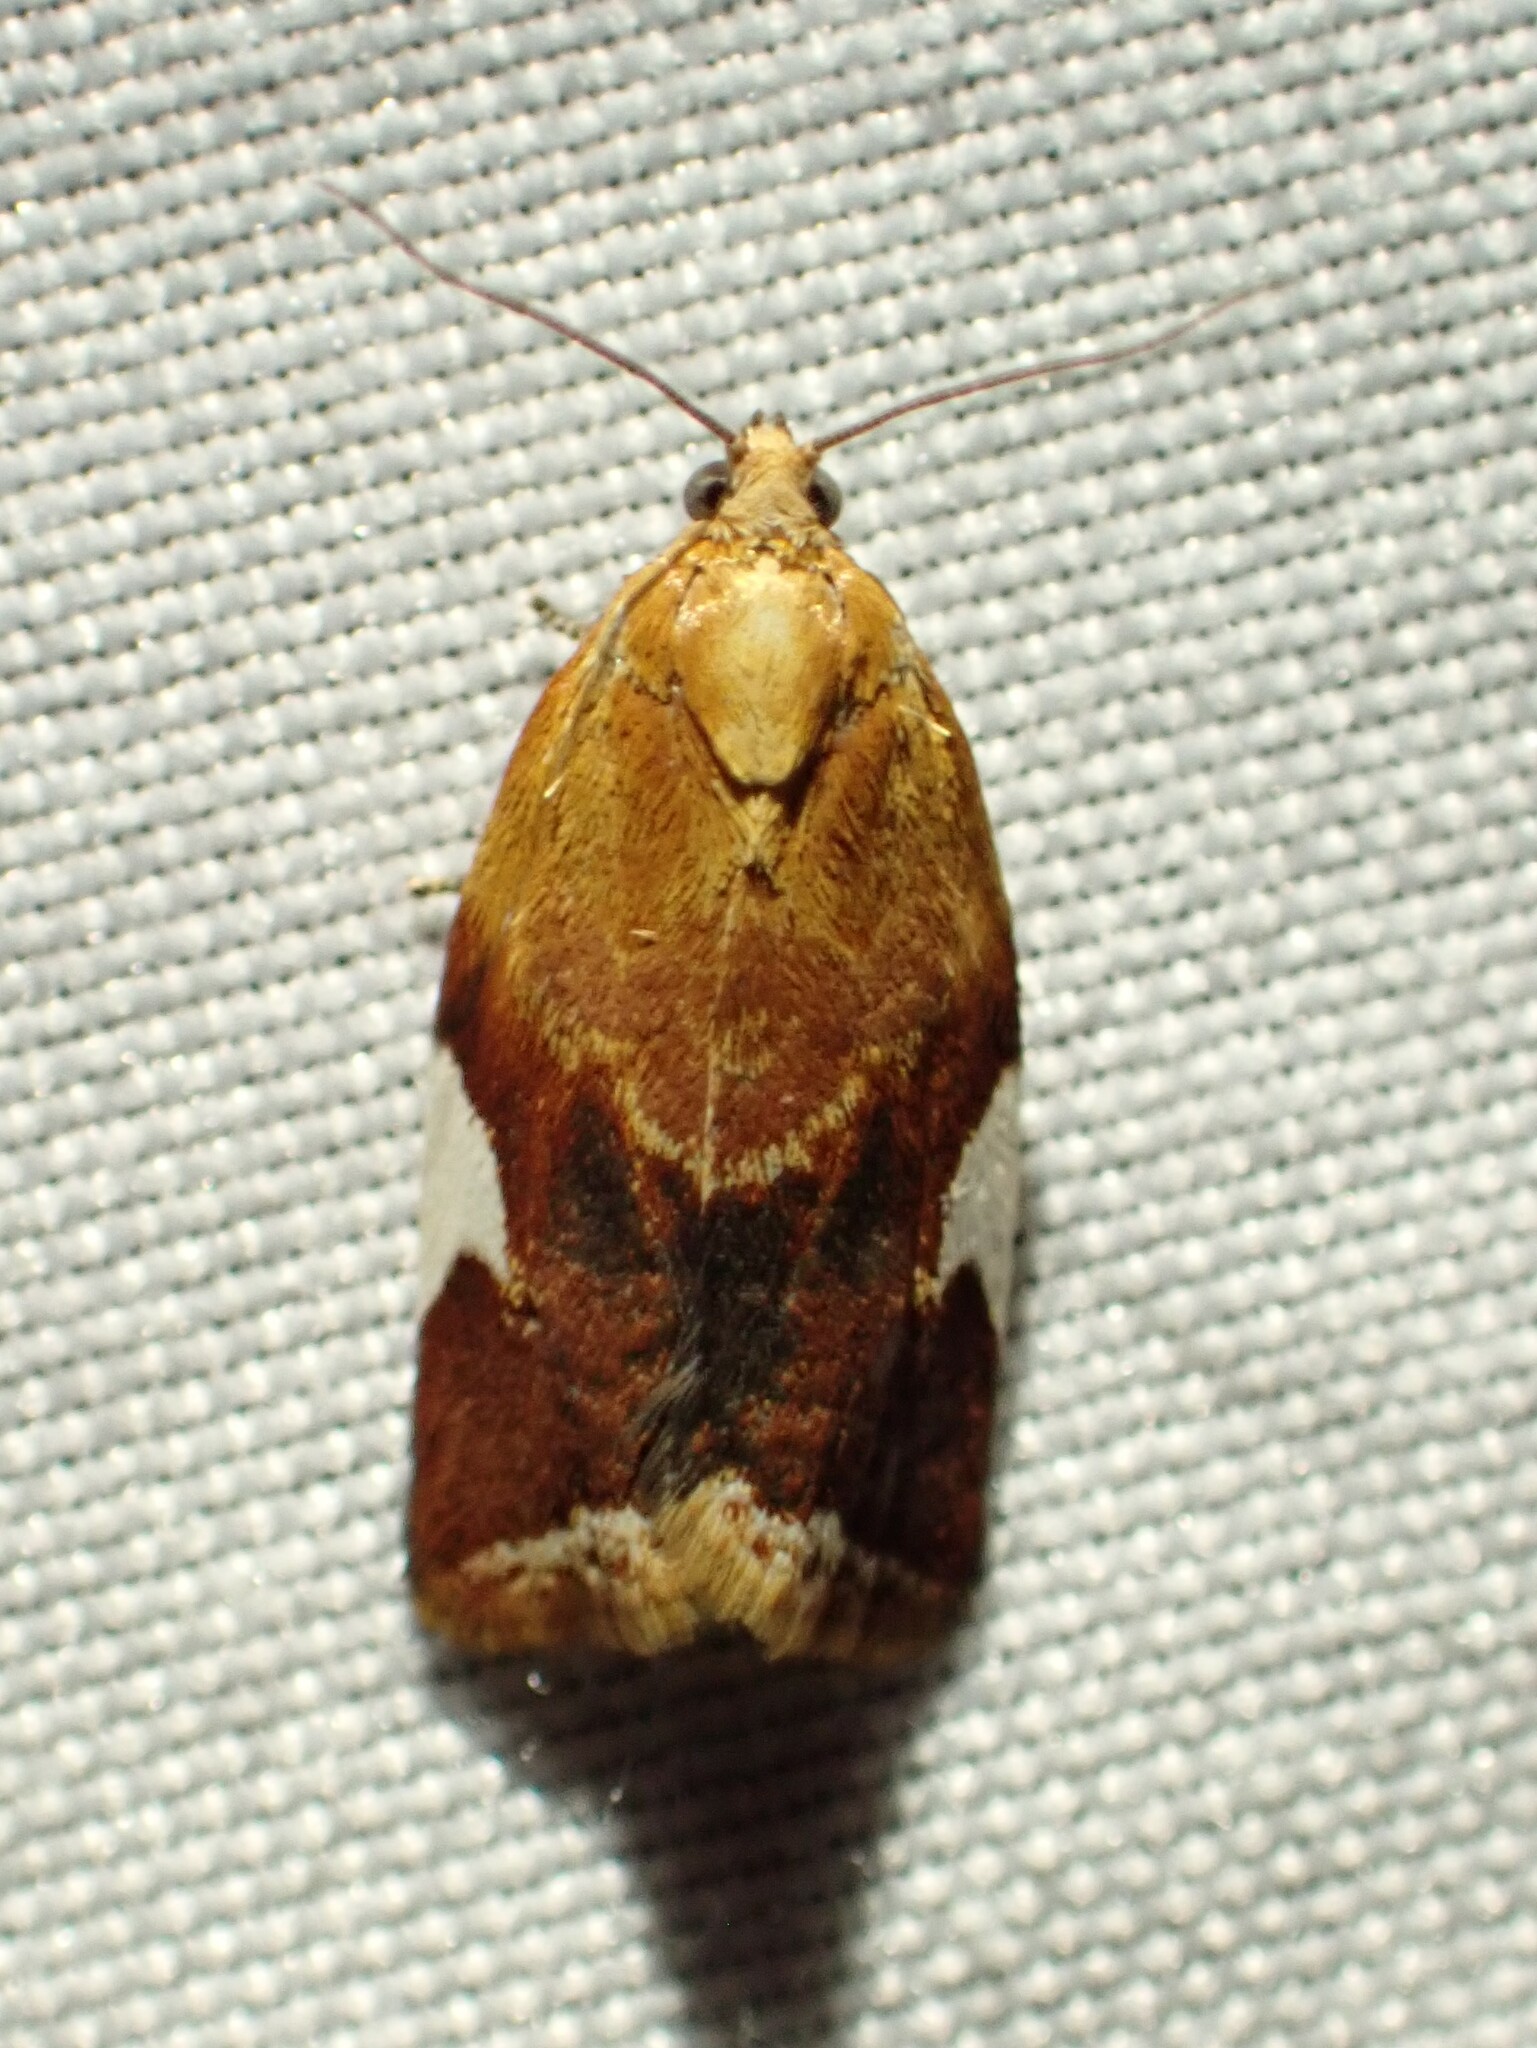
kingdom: Animalia
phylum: Arthropoda
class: Insecta
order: Lepidoptera
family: Tortricidae
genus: Clepsis
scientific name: Clepsis persicana
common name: White triangle tortrix
